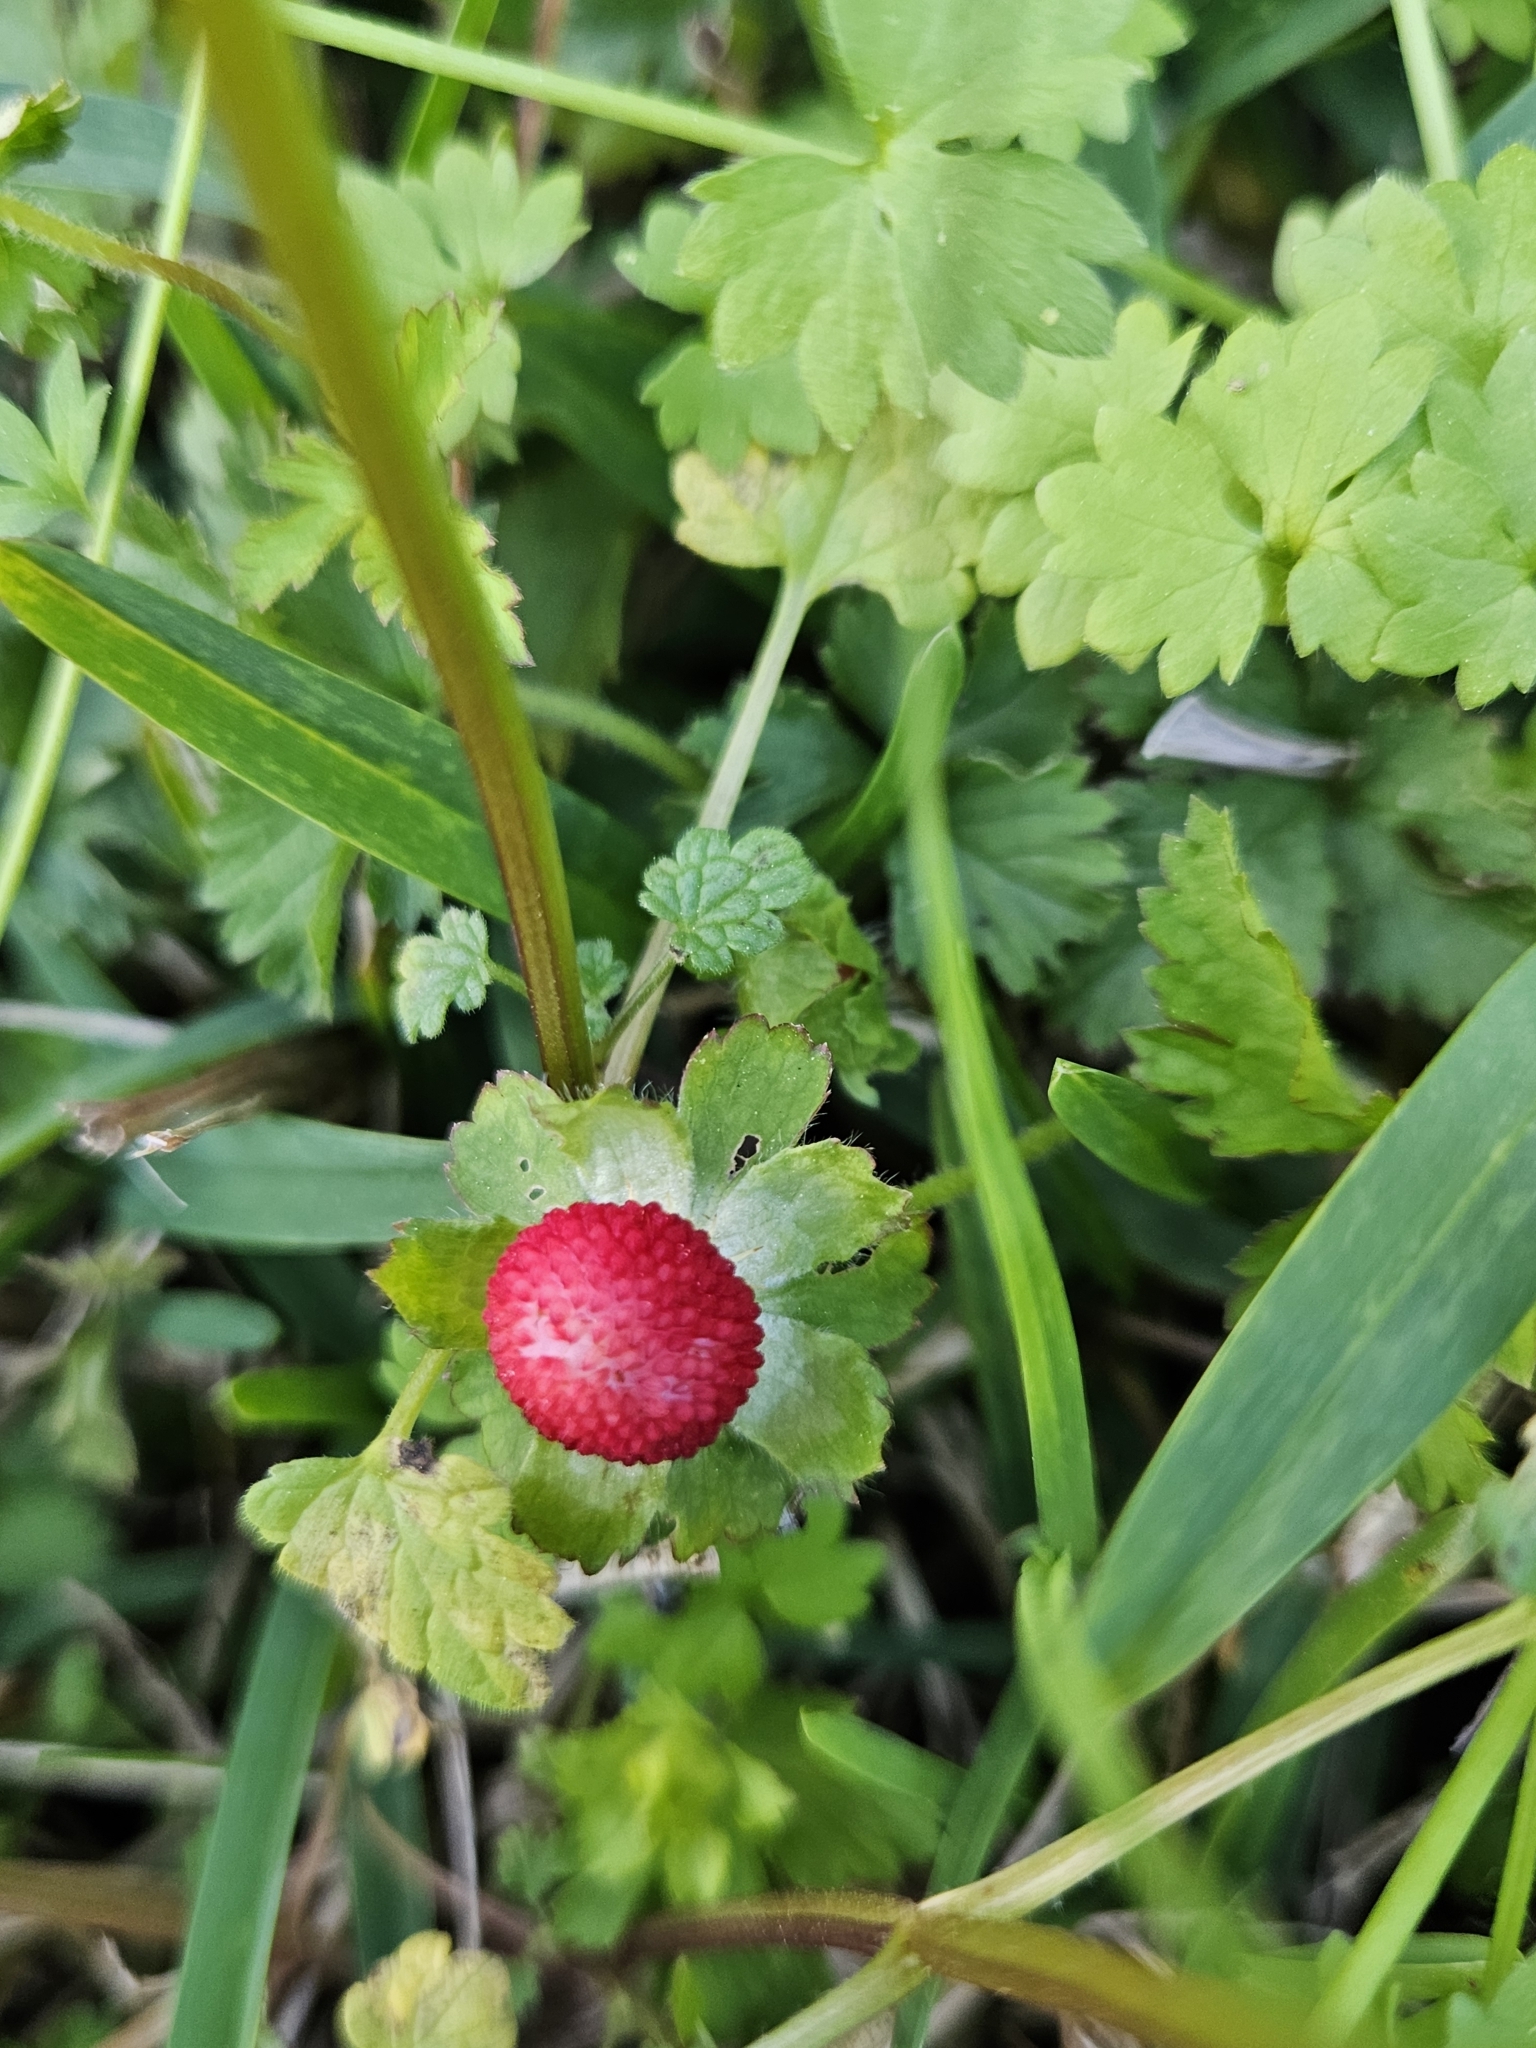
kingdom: Plantae
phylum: Tracheophyta
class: Magnoliopsida
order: Rosales
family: Rosaceae
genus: Potentilla
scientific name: Potentilla indica
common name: Yellow-flowered strawberry
